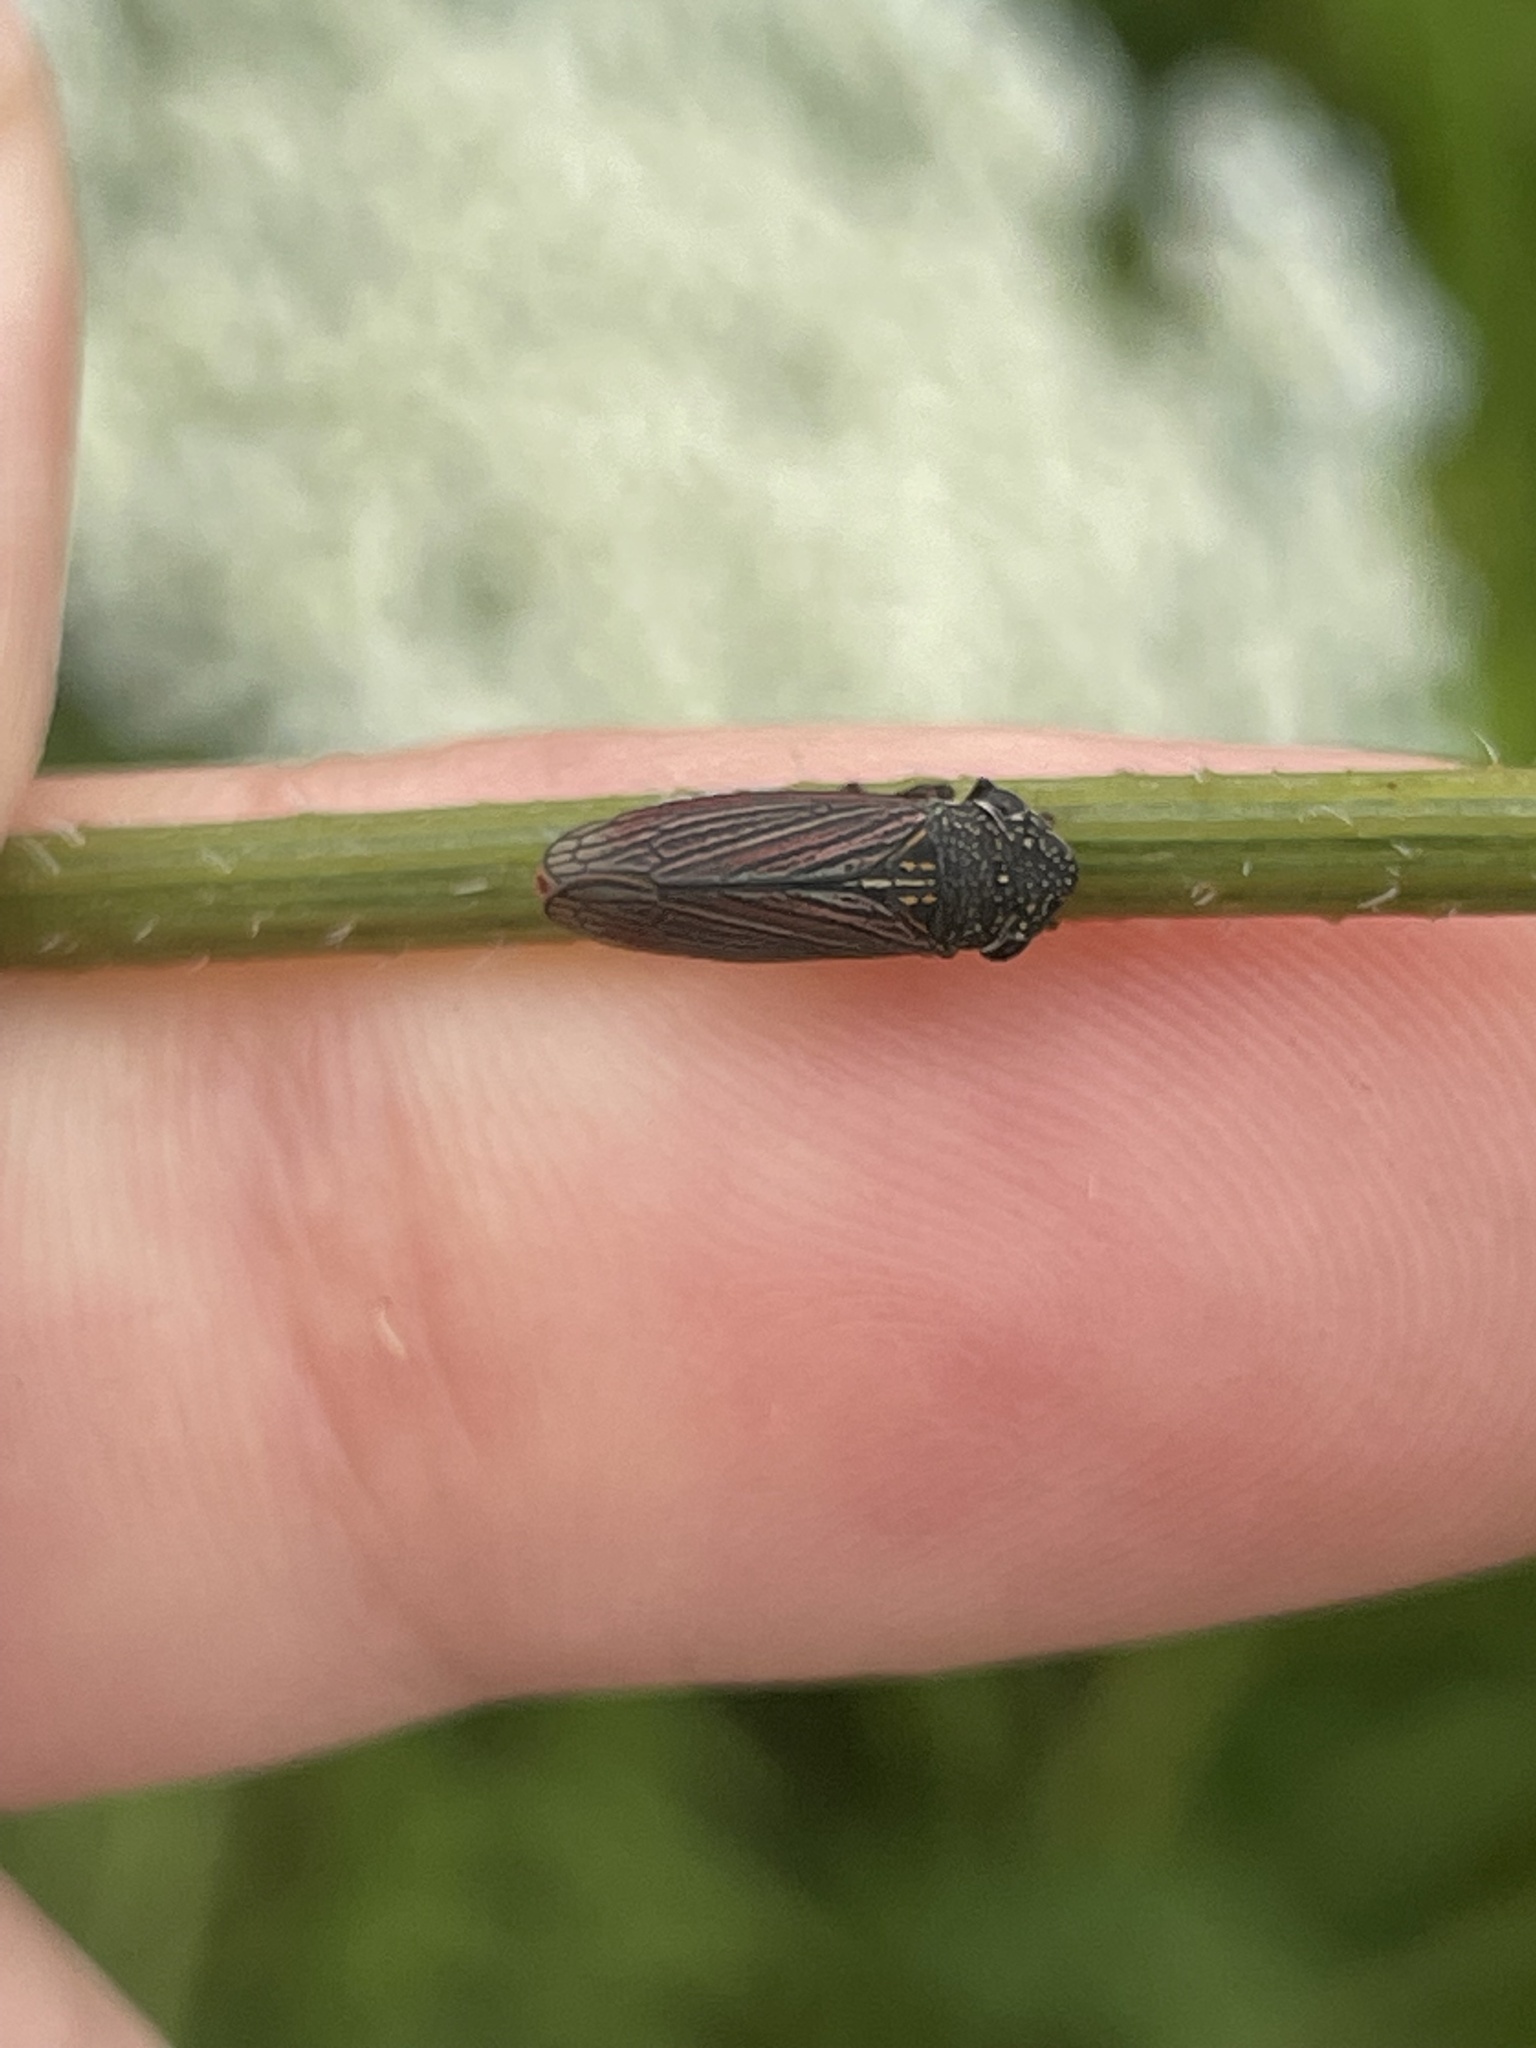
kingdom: Animalia
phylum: Arthropoda
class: Insecta
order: Hemiptera
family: Cicadellidae
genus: Cuerna
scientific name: Cuerna costalis
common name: Lateral-lined sharpshooter
